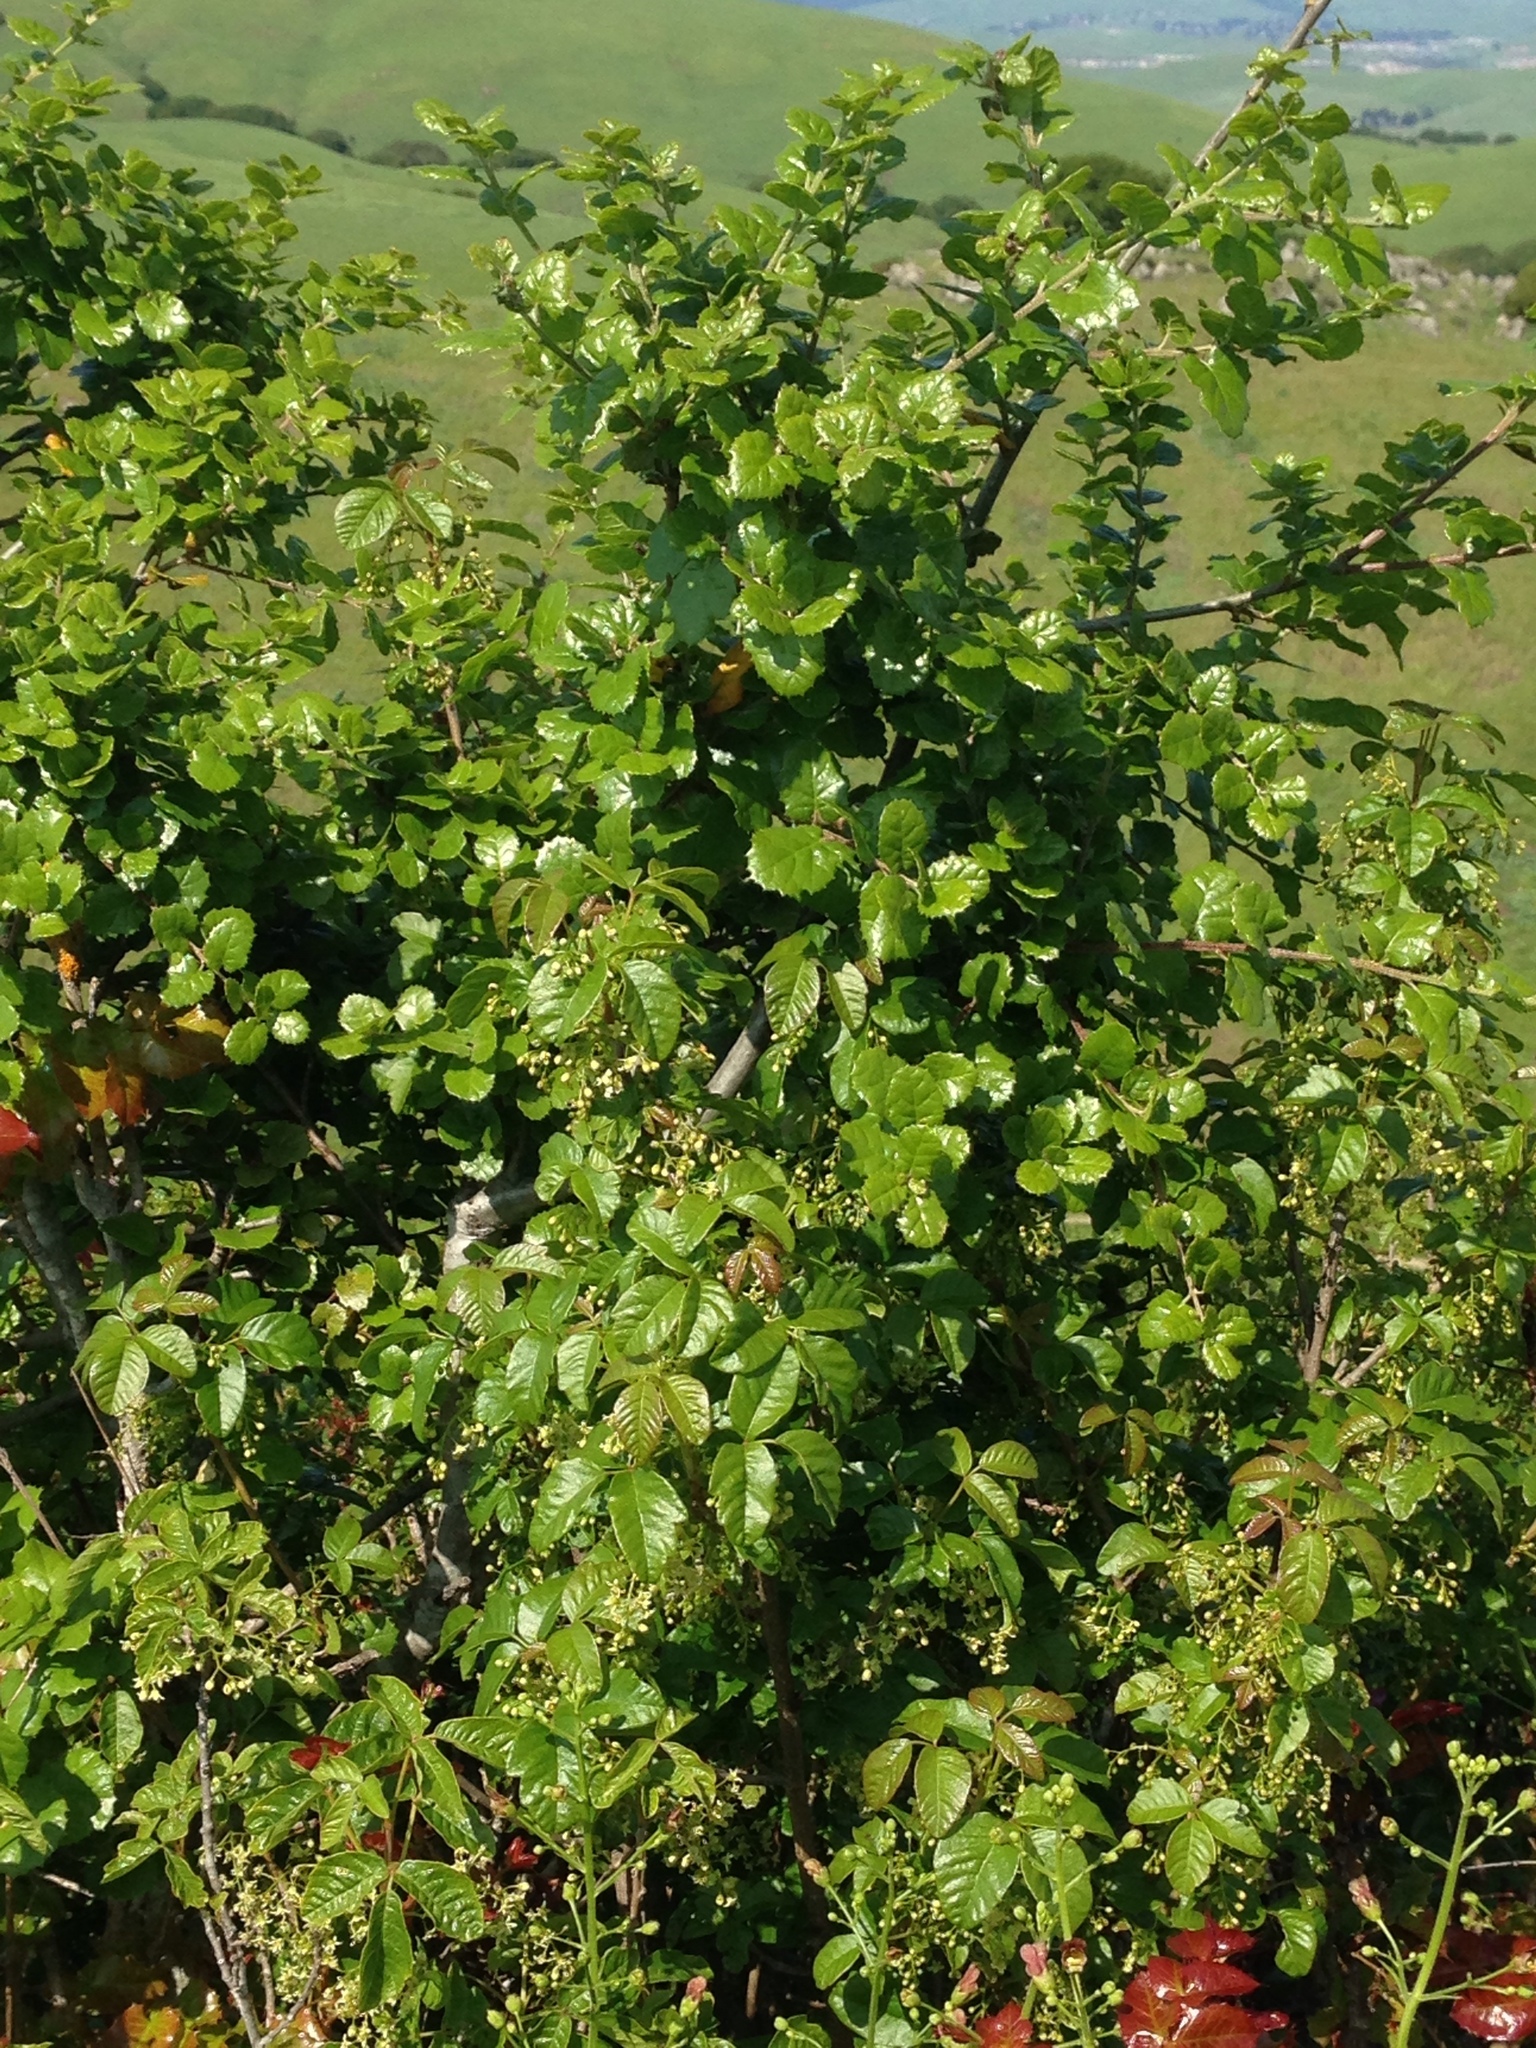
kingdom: Plantae
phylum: Tracheophyta
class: Magnoliopsida
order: Sapindales
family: Anacardiaceae
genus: Toxicodendron
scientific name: Toxicodendron diversilobum
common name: Pacific poison-oak
